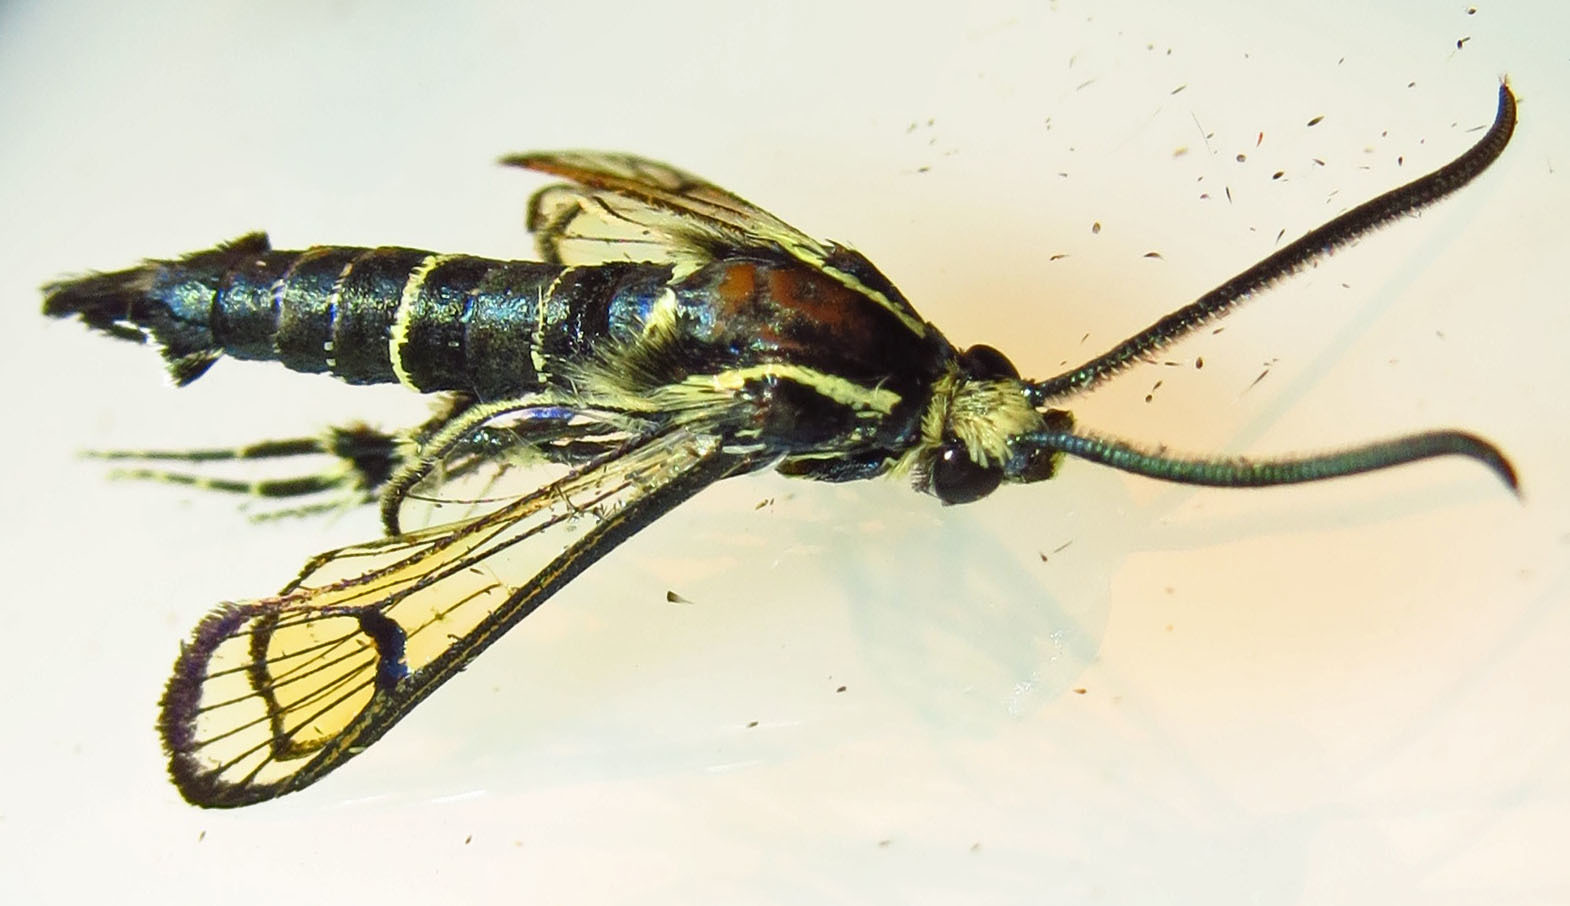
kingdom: Animalia
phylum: Arthropoda
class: Insecta
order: Lepidoptera
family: Sesiidae
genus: Synanthedon
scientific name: Synanthedon exitiosa
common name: Peachtree borer moth
